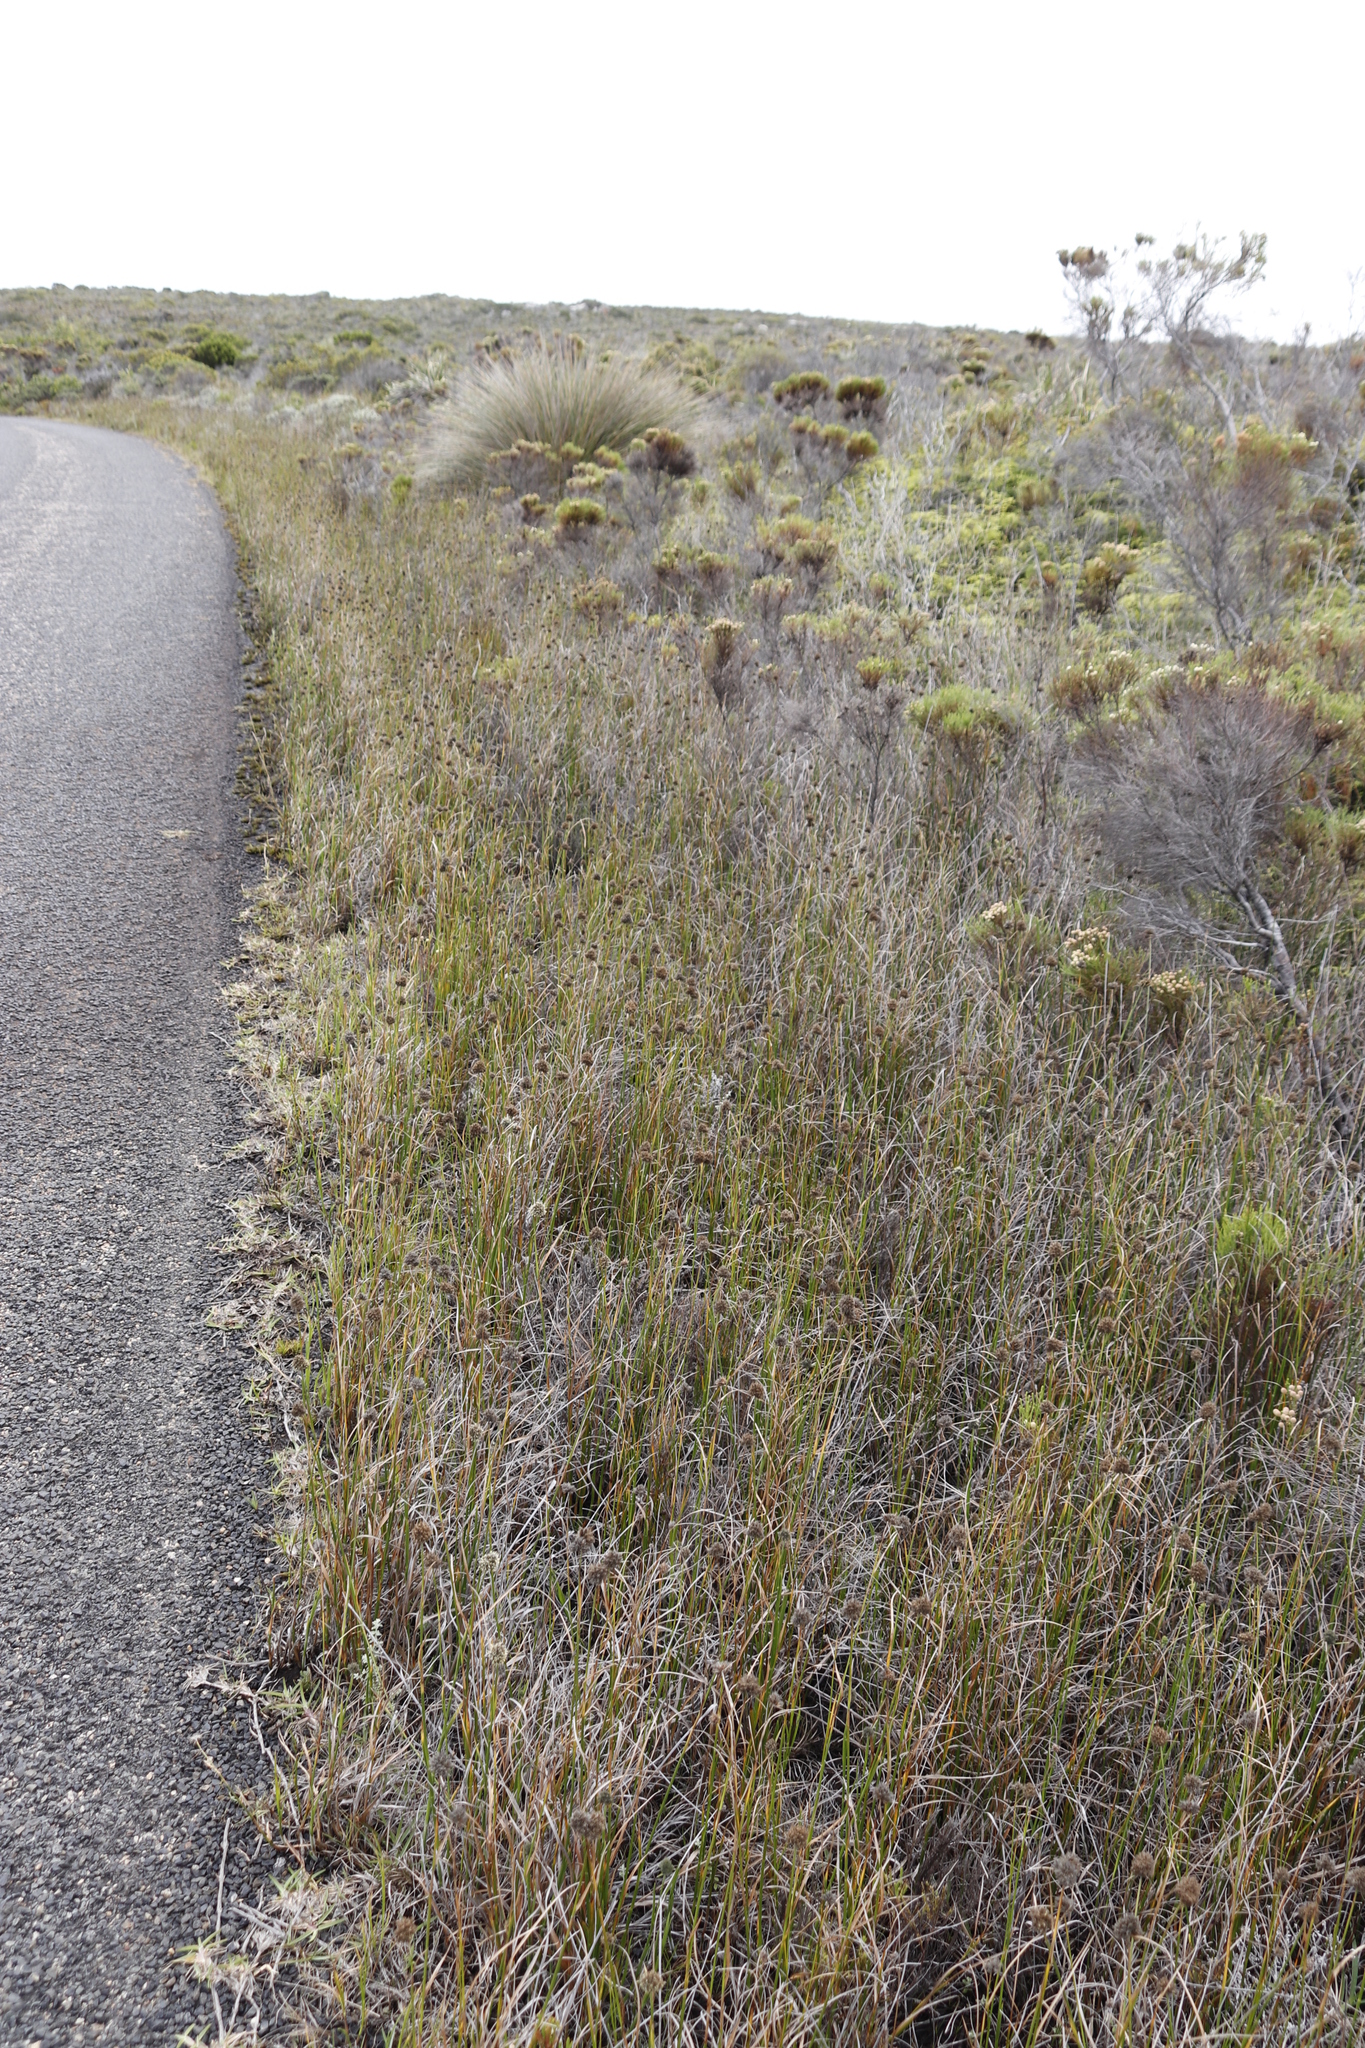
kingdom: Plantae
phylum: Tracheophyta
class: Liliopsida
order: Poales
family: Cyperaceae
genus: Fuirena
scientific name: Fuirena hirsuta
